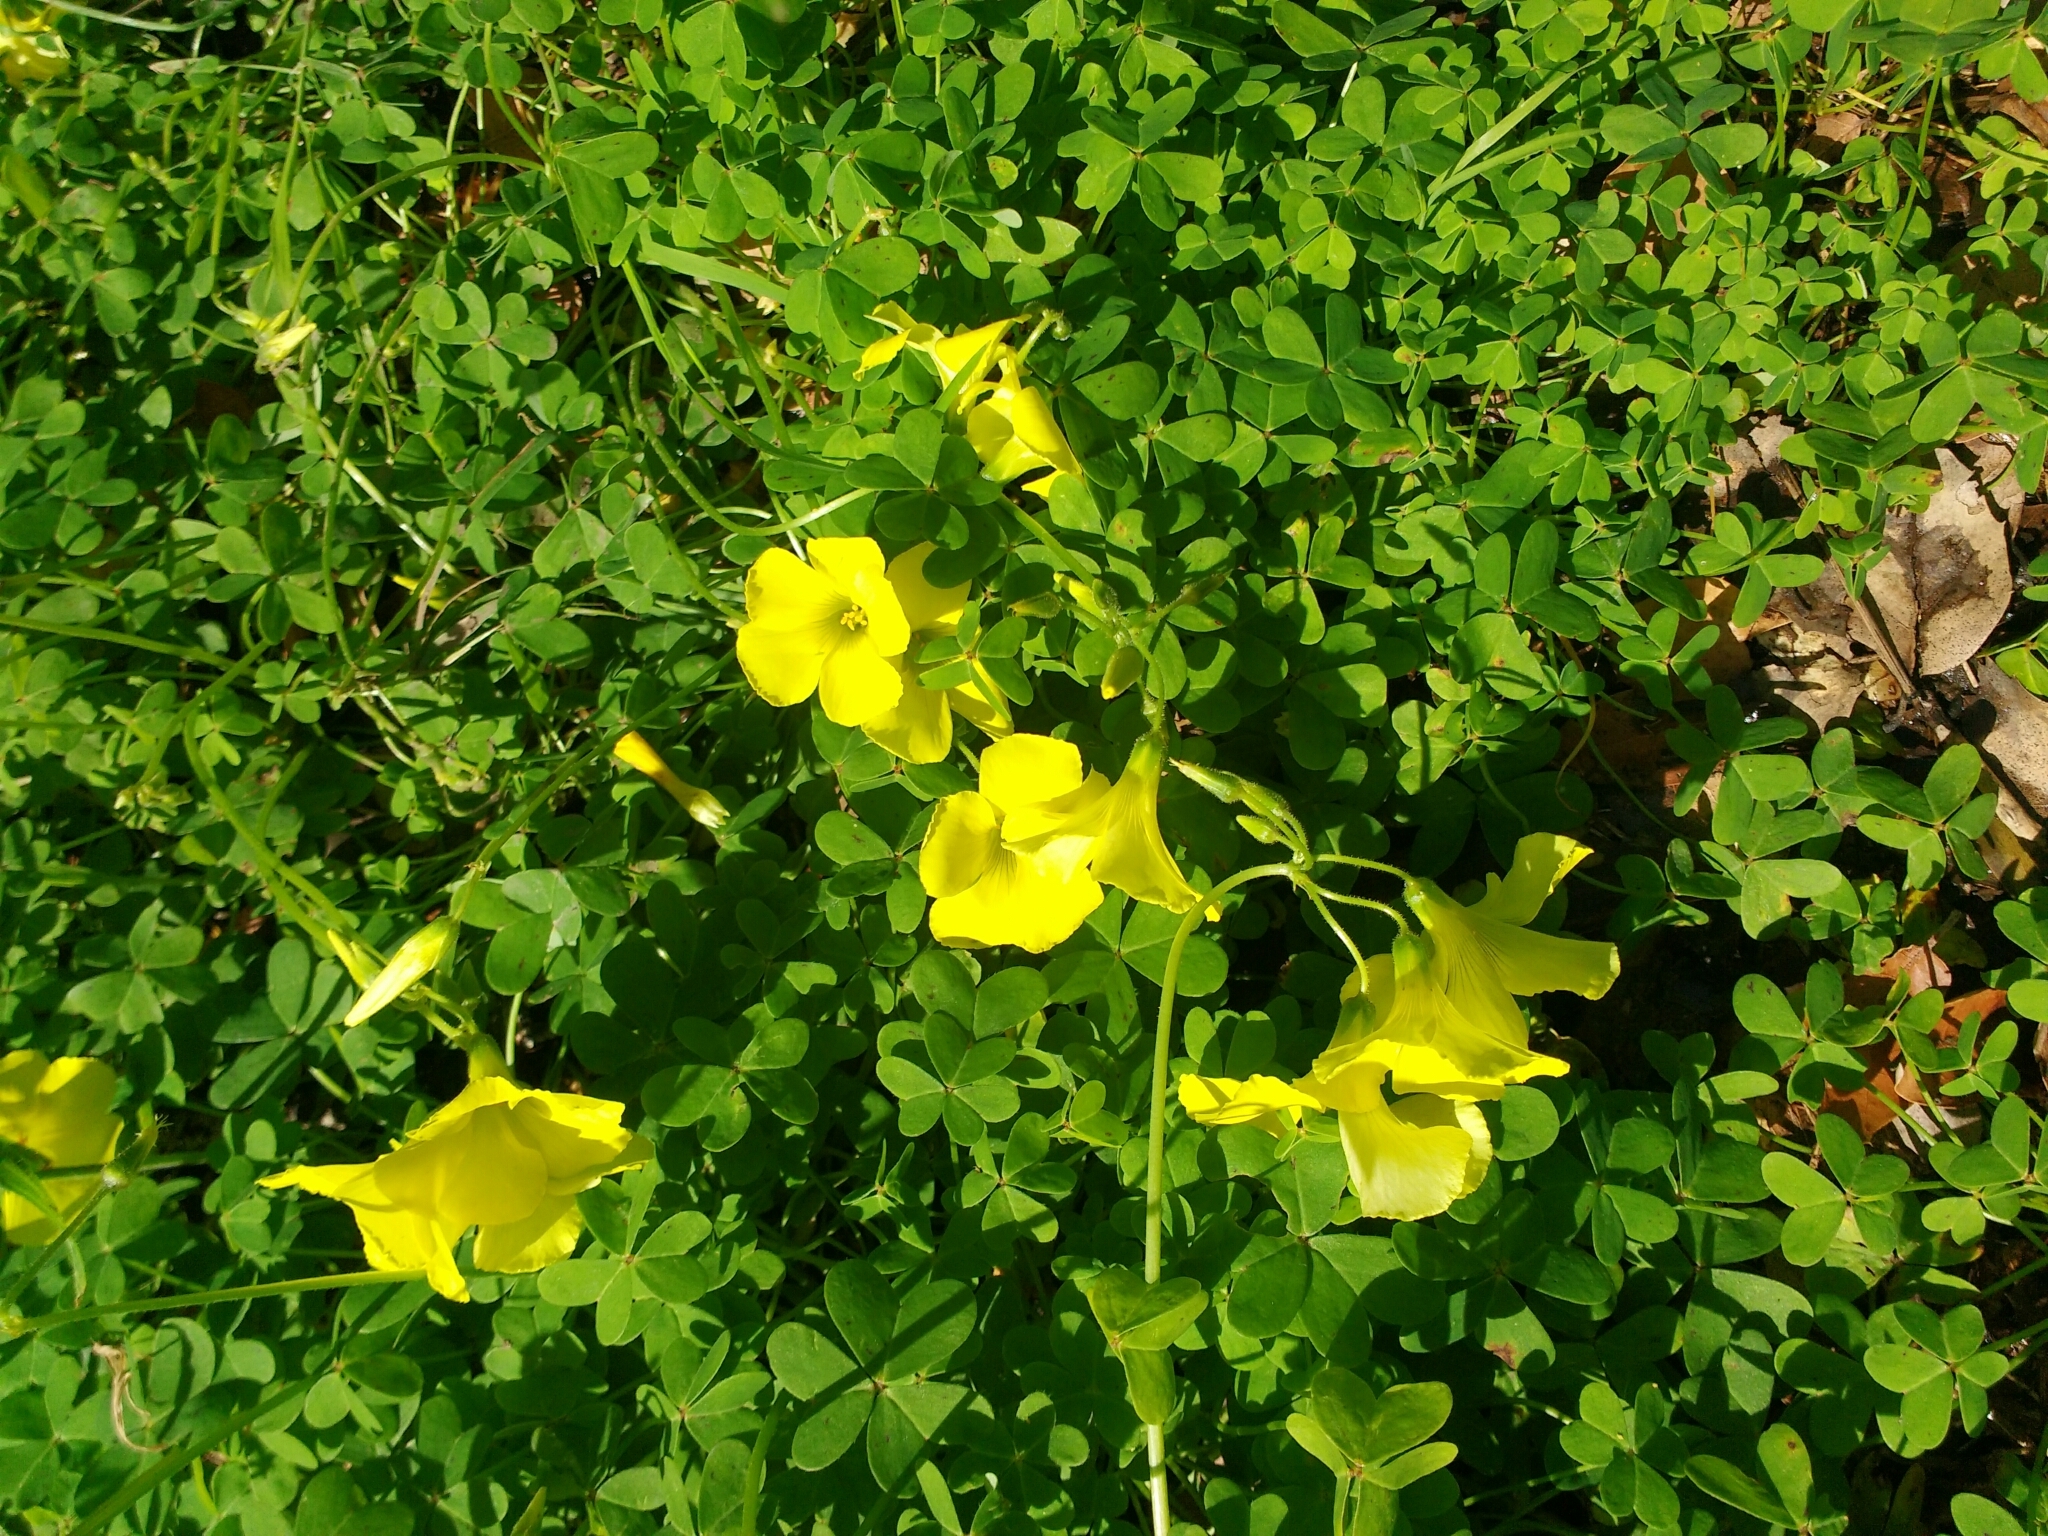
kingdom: Plantae
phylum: Tracheophyta
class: Magnoliopsida
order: Oxalidales
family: Oxalidaceae
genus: Oxalis
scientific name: Oxalis pes-caprae
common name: Bermuda-buttercup
